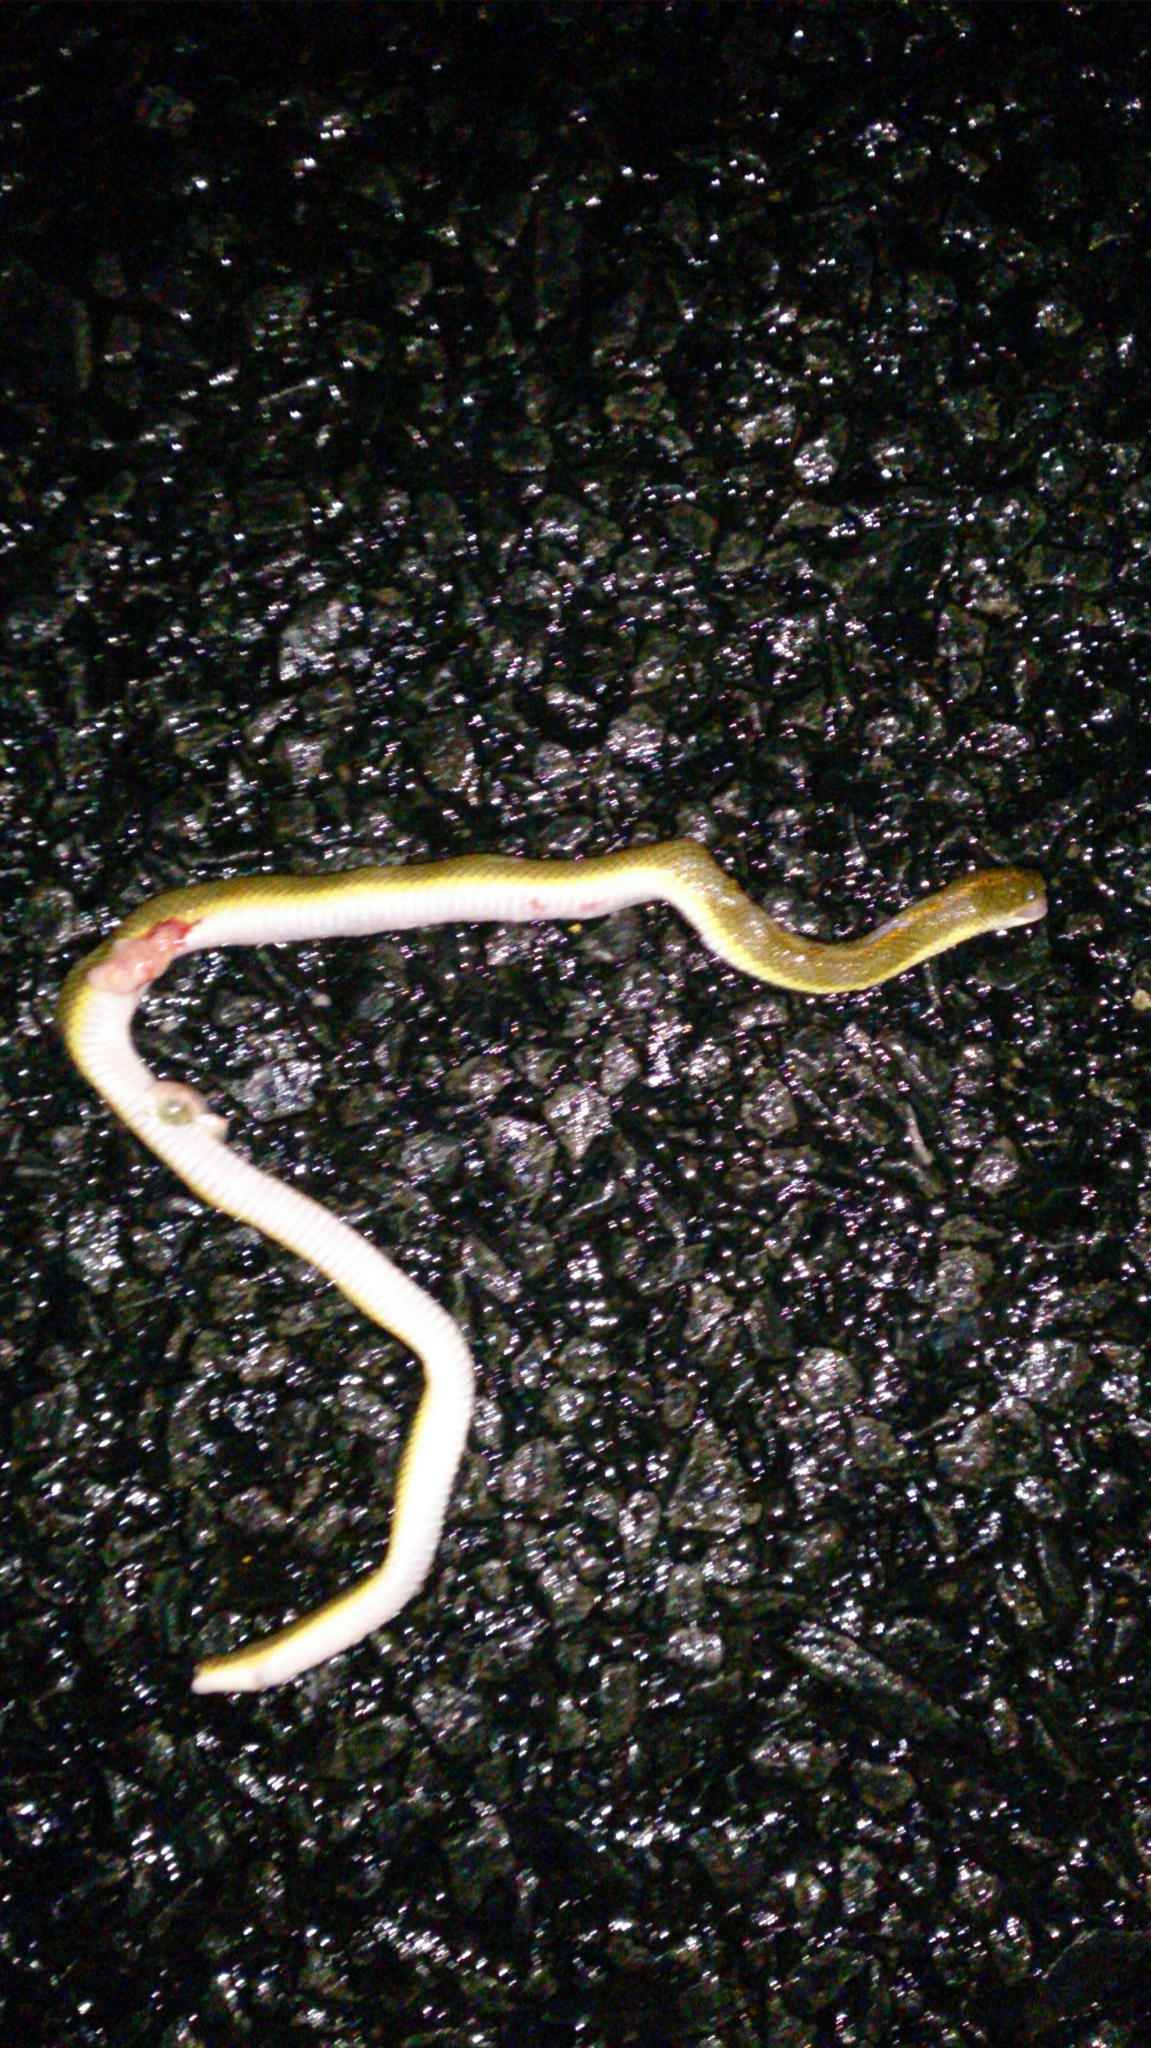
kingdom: Animalia
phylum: Chordata
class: Squamata
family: Lamprophiidae
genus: Lamprophis
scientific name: Lamprophis aurora
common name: Aurora house snake
